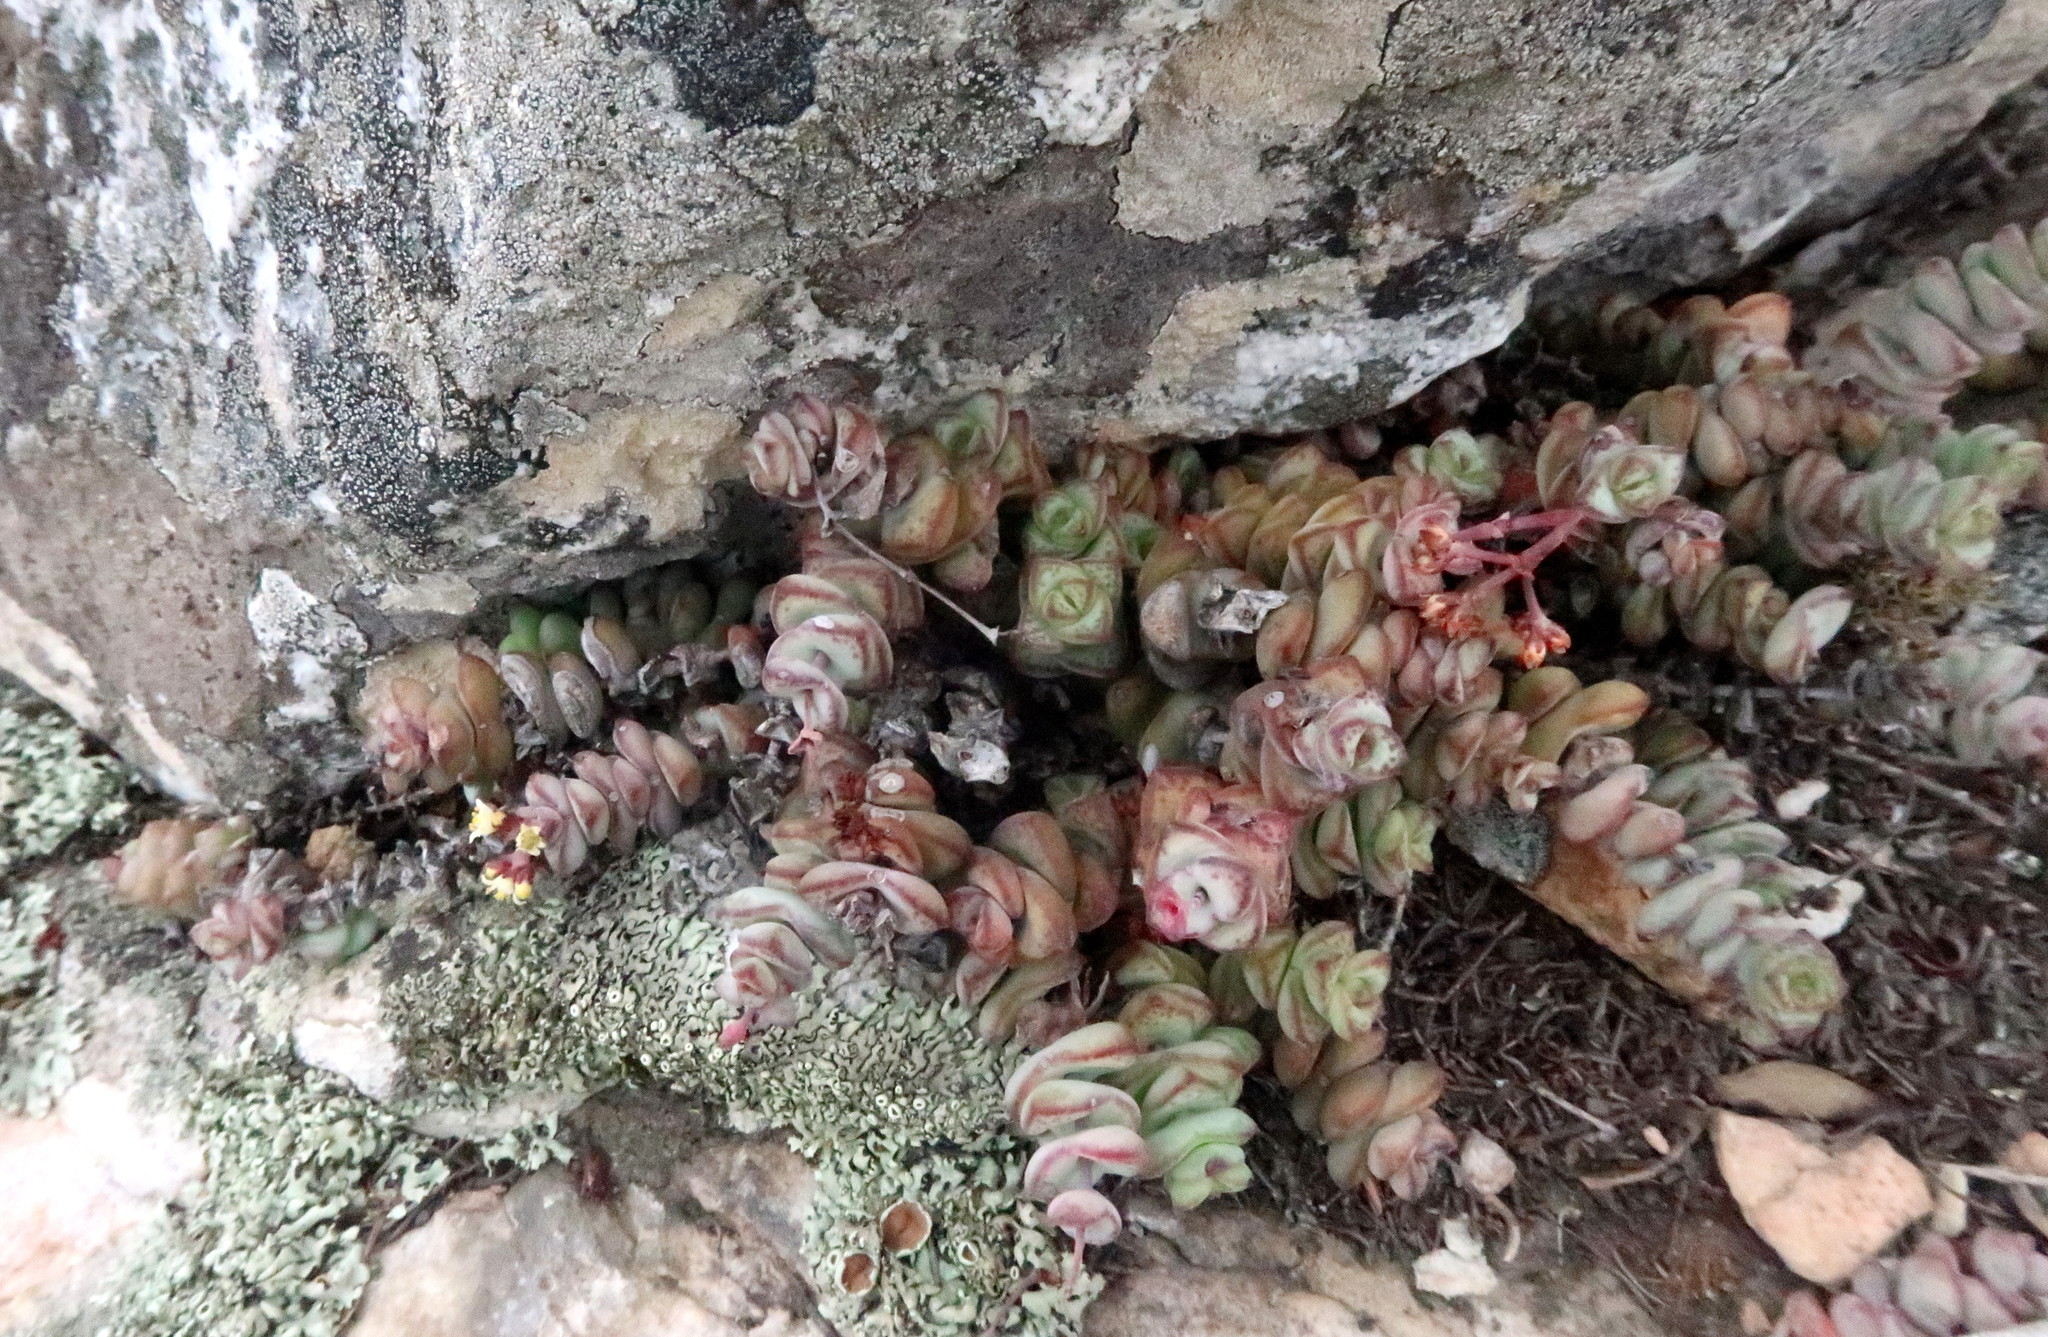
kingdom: Plantae
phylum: Tracheophyta
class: Magnoliopsida
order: Saxifragales
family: Crassulaceae
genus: Crassula
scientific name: Crassula perforata
